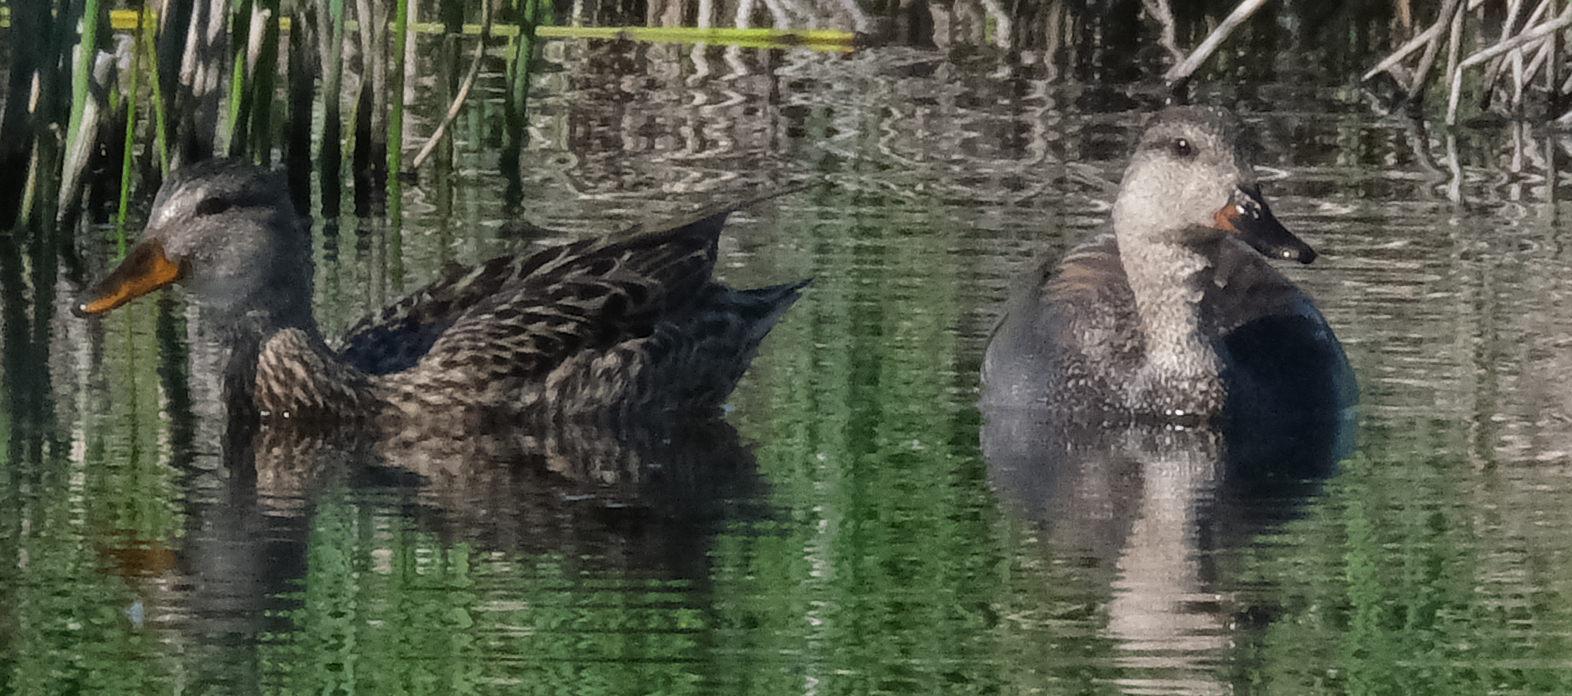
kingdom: Animalia
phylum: Chordata
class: Aves
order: Anseriformes
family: Anatidae
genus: Mareca
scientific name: Mareca strepera
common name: Gadwall
